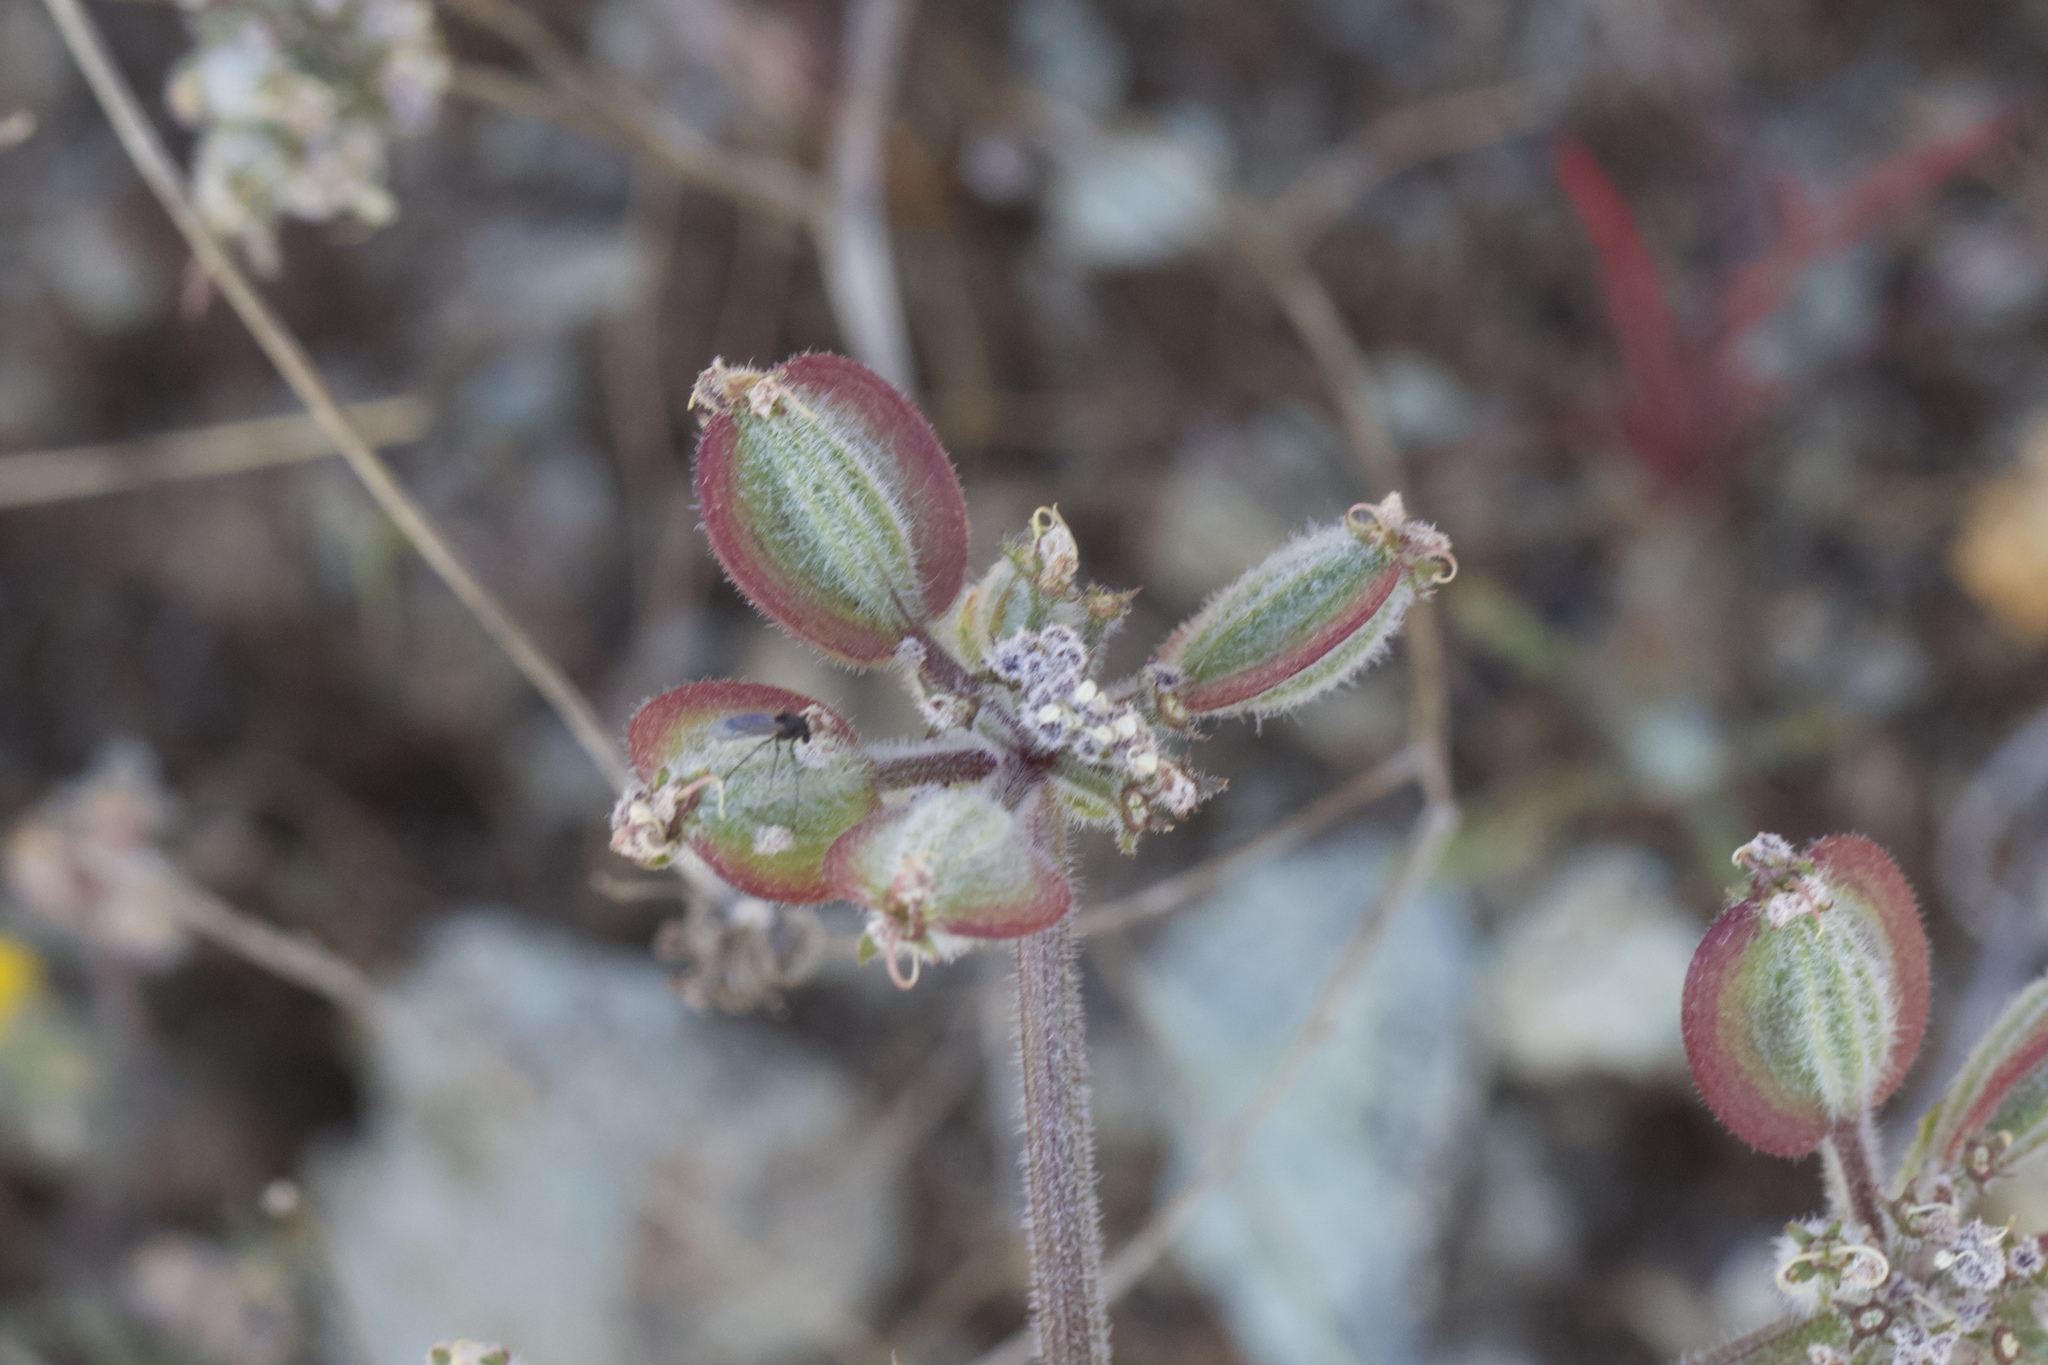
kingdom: Plantae
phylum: Tracheophyta
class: Magnoliopsida
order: Apiales
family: Apiaceae
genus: Lomatium
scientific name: Lomatium dasycarpum
